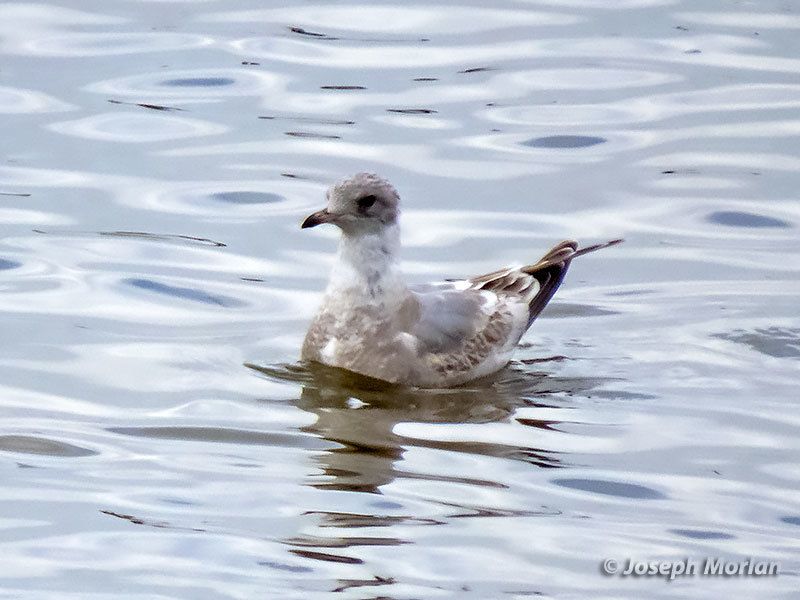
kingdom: Animalia
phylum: Chordata
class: Aves
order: Charadriiformes
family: Laridae
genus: Larus
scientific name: Larus brachyrhynchus
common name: Short-billed gull
